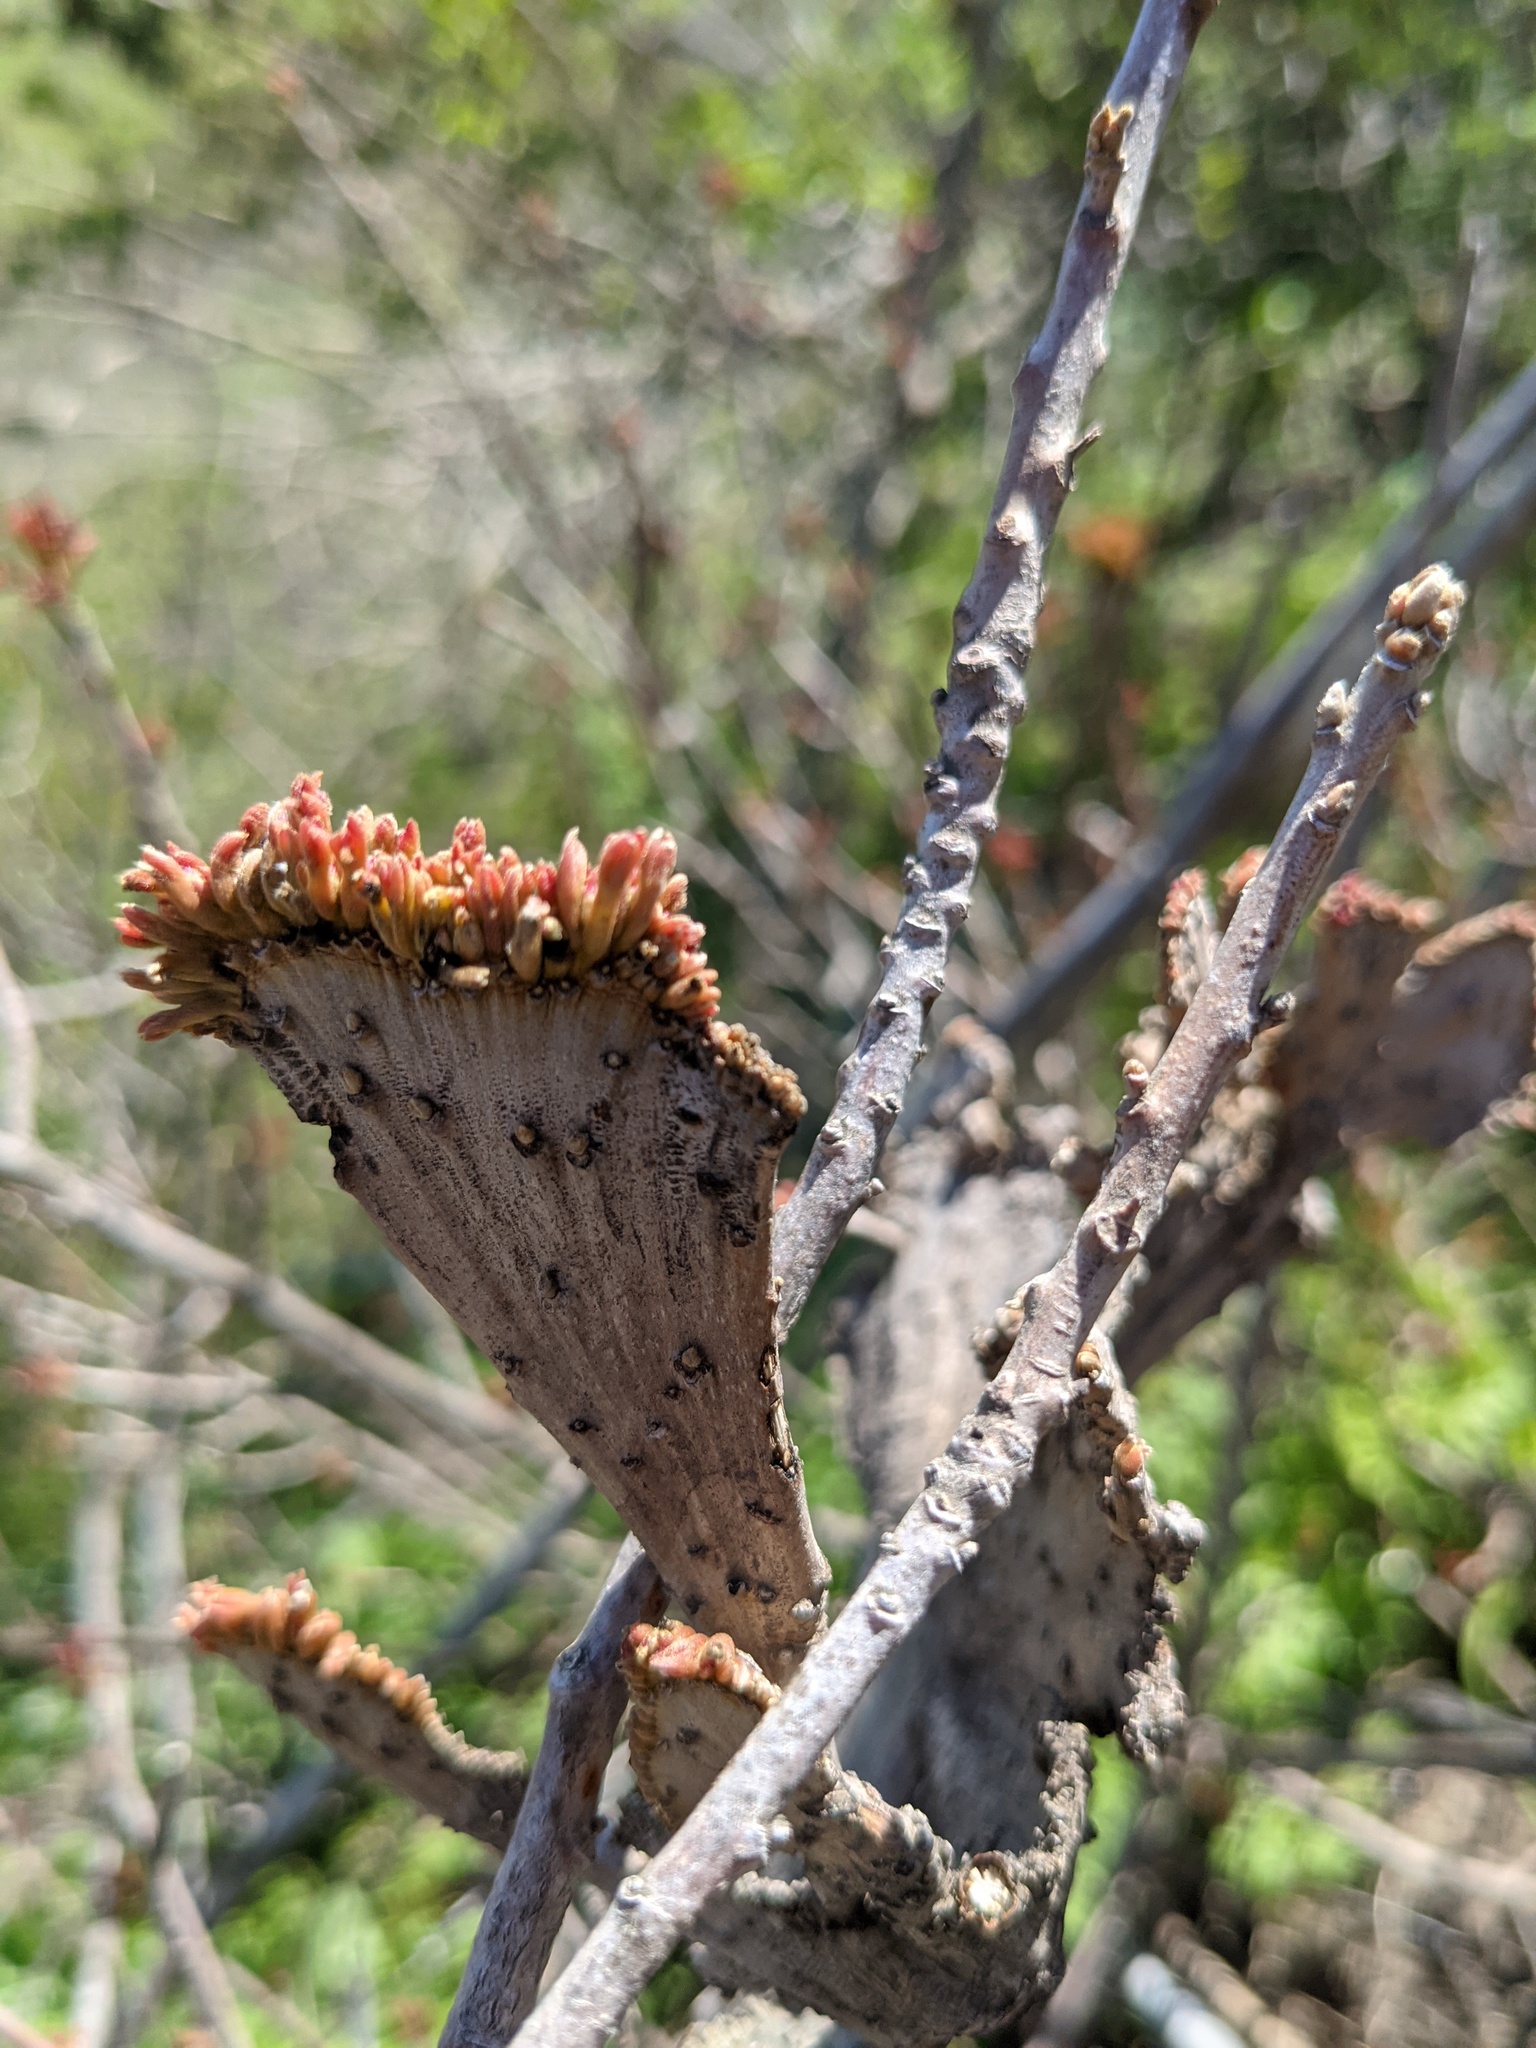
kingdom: Plantae
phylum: Tracheophyta
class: Magnoliopsida
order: Sapindales
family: Anacardiaceae
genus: Toxicodendron
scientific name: Toxicodendron diversilobum
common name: Pacific poison-oak
